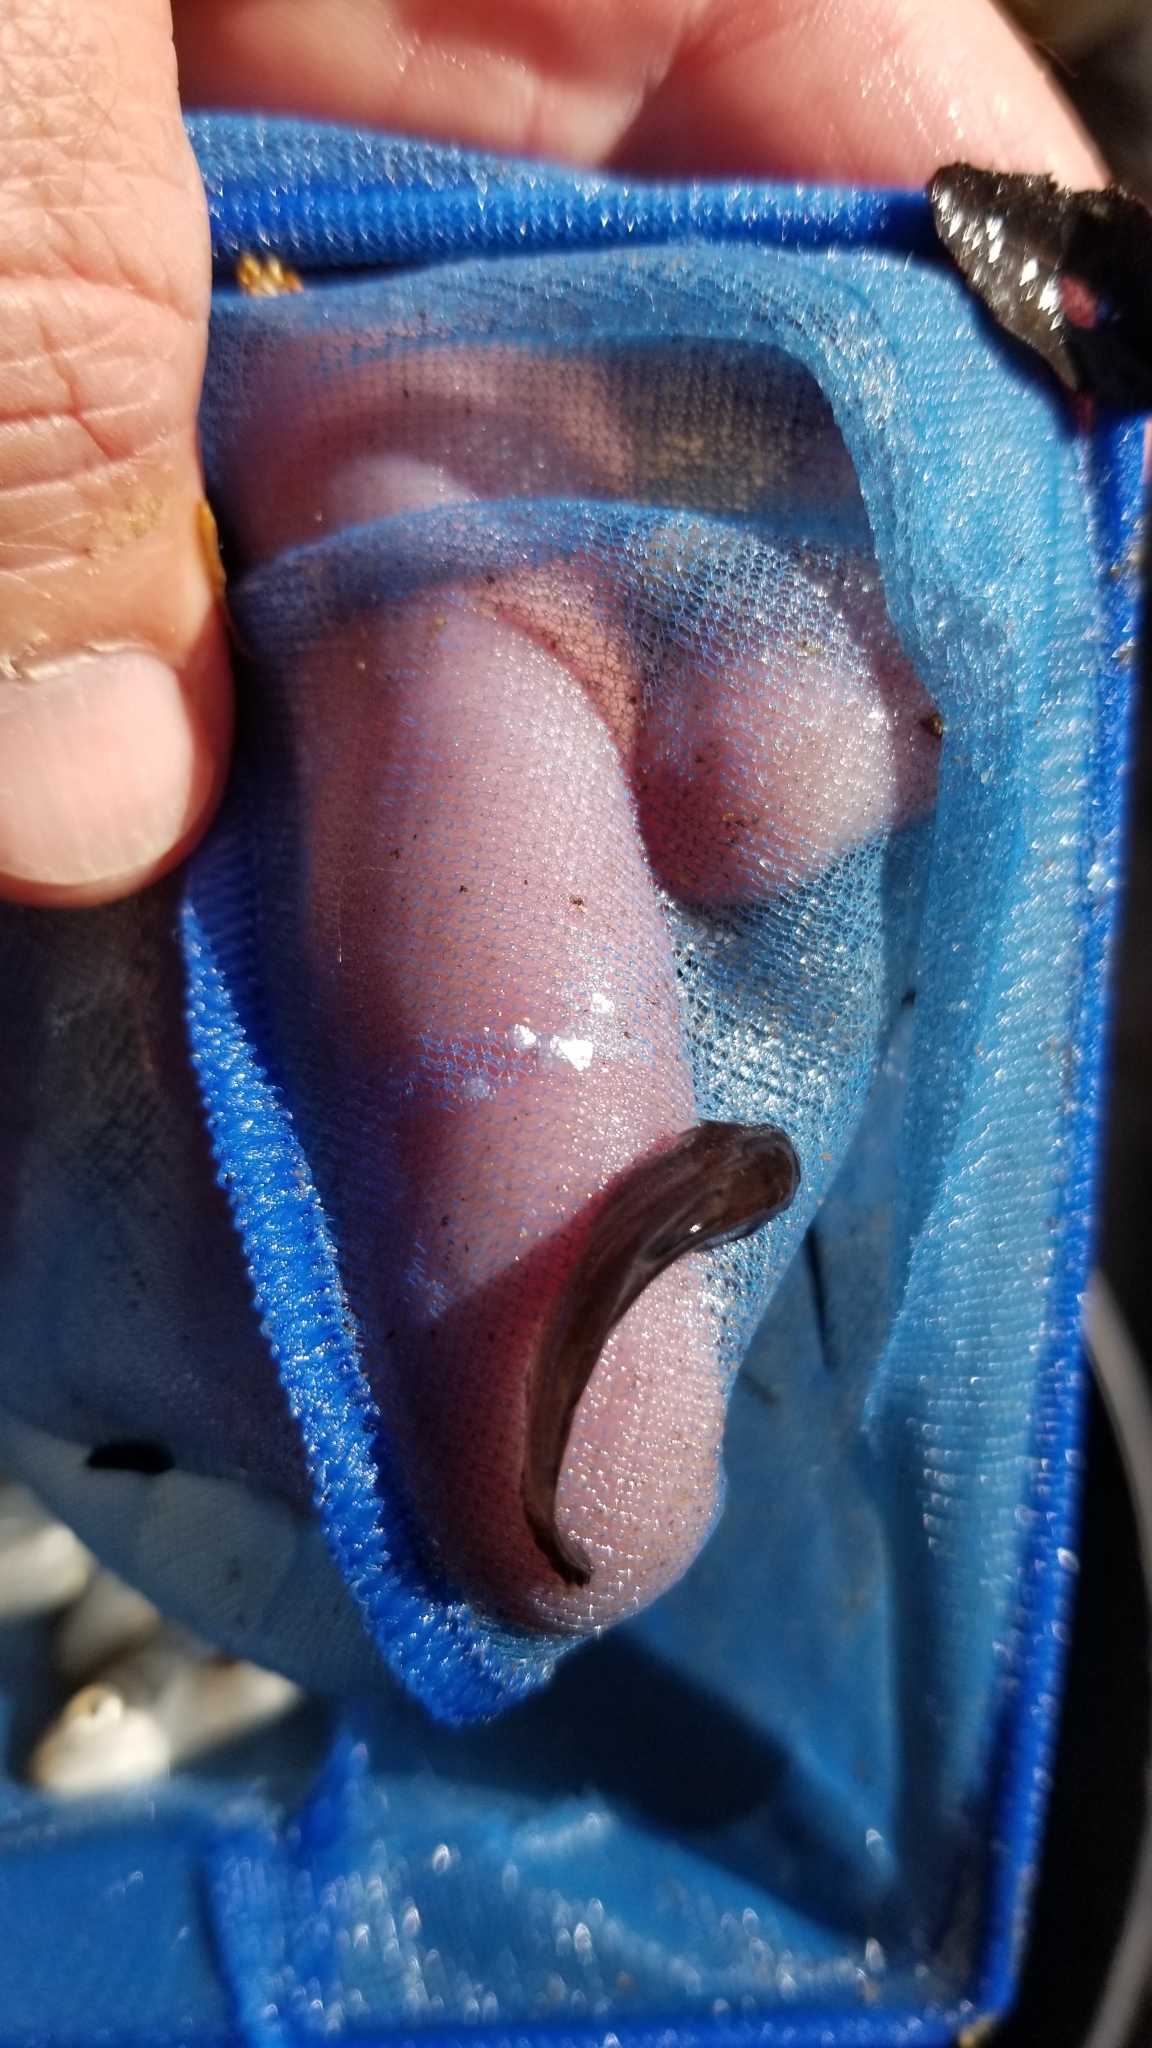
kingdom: Animalia
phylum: Chordata
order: Siluriformes
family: Ictaluridae
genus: Noturus
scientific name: Noturus phaeus
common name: Brown madtom
